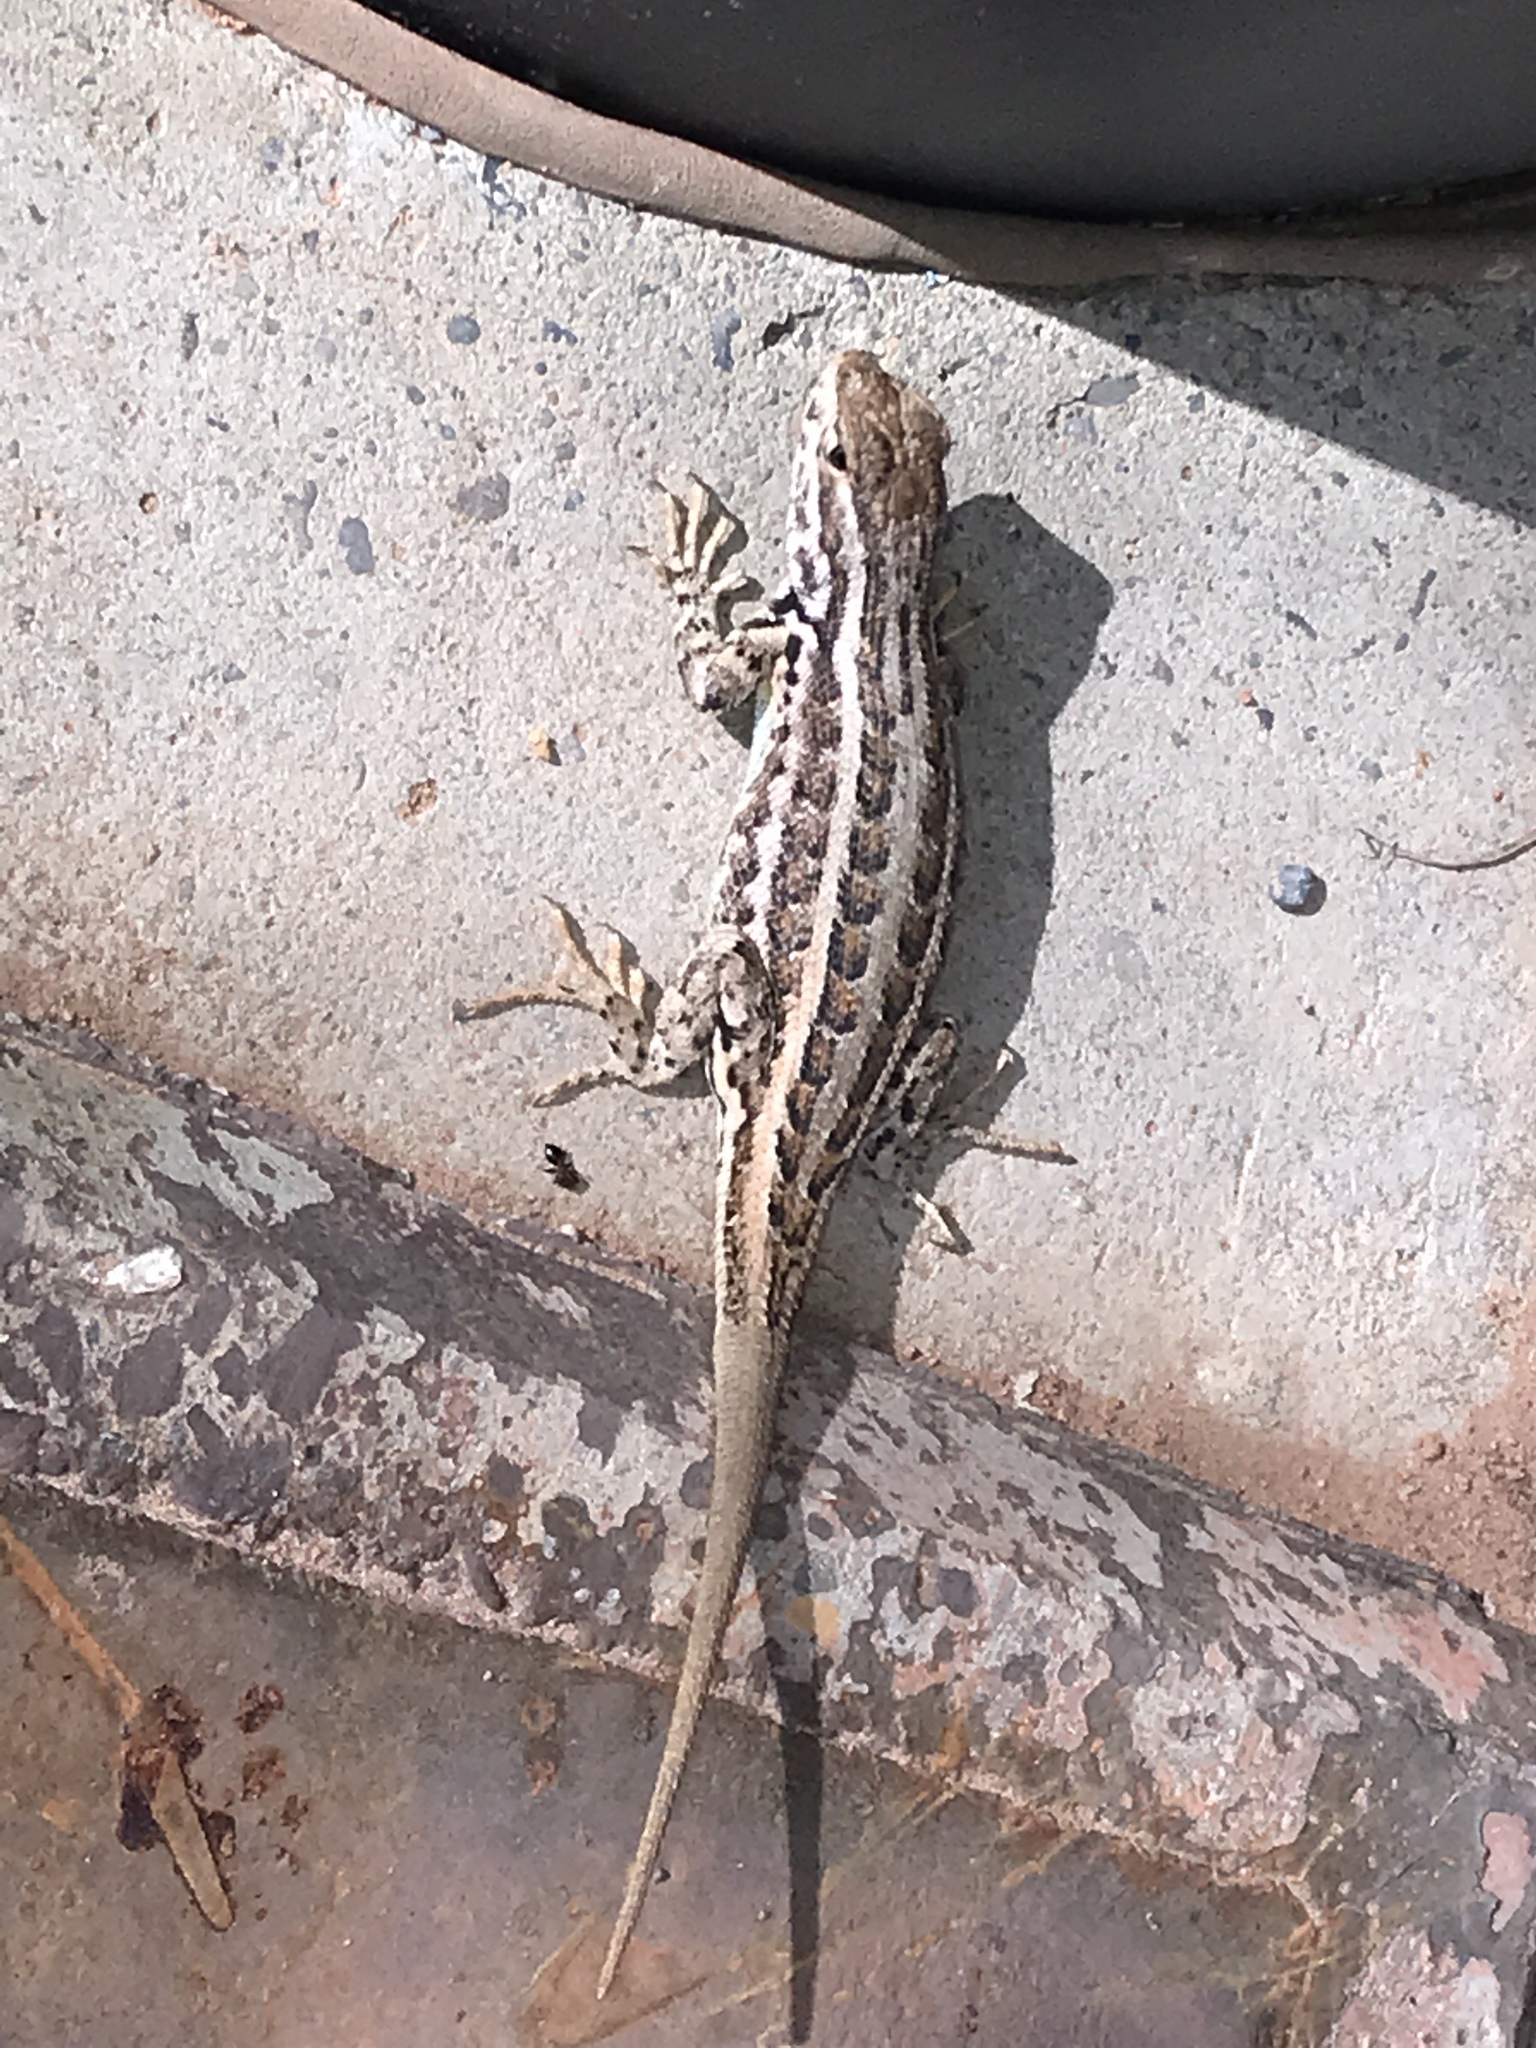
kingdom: Animalia
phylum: Chordata
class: Squamata
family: Phrynosomatidae
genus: Sceloporus
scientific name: Sceloporus graciosus
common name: Sagebrush lizard
